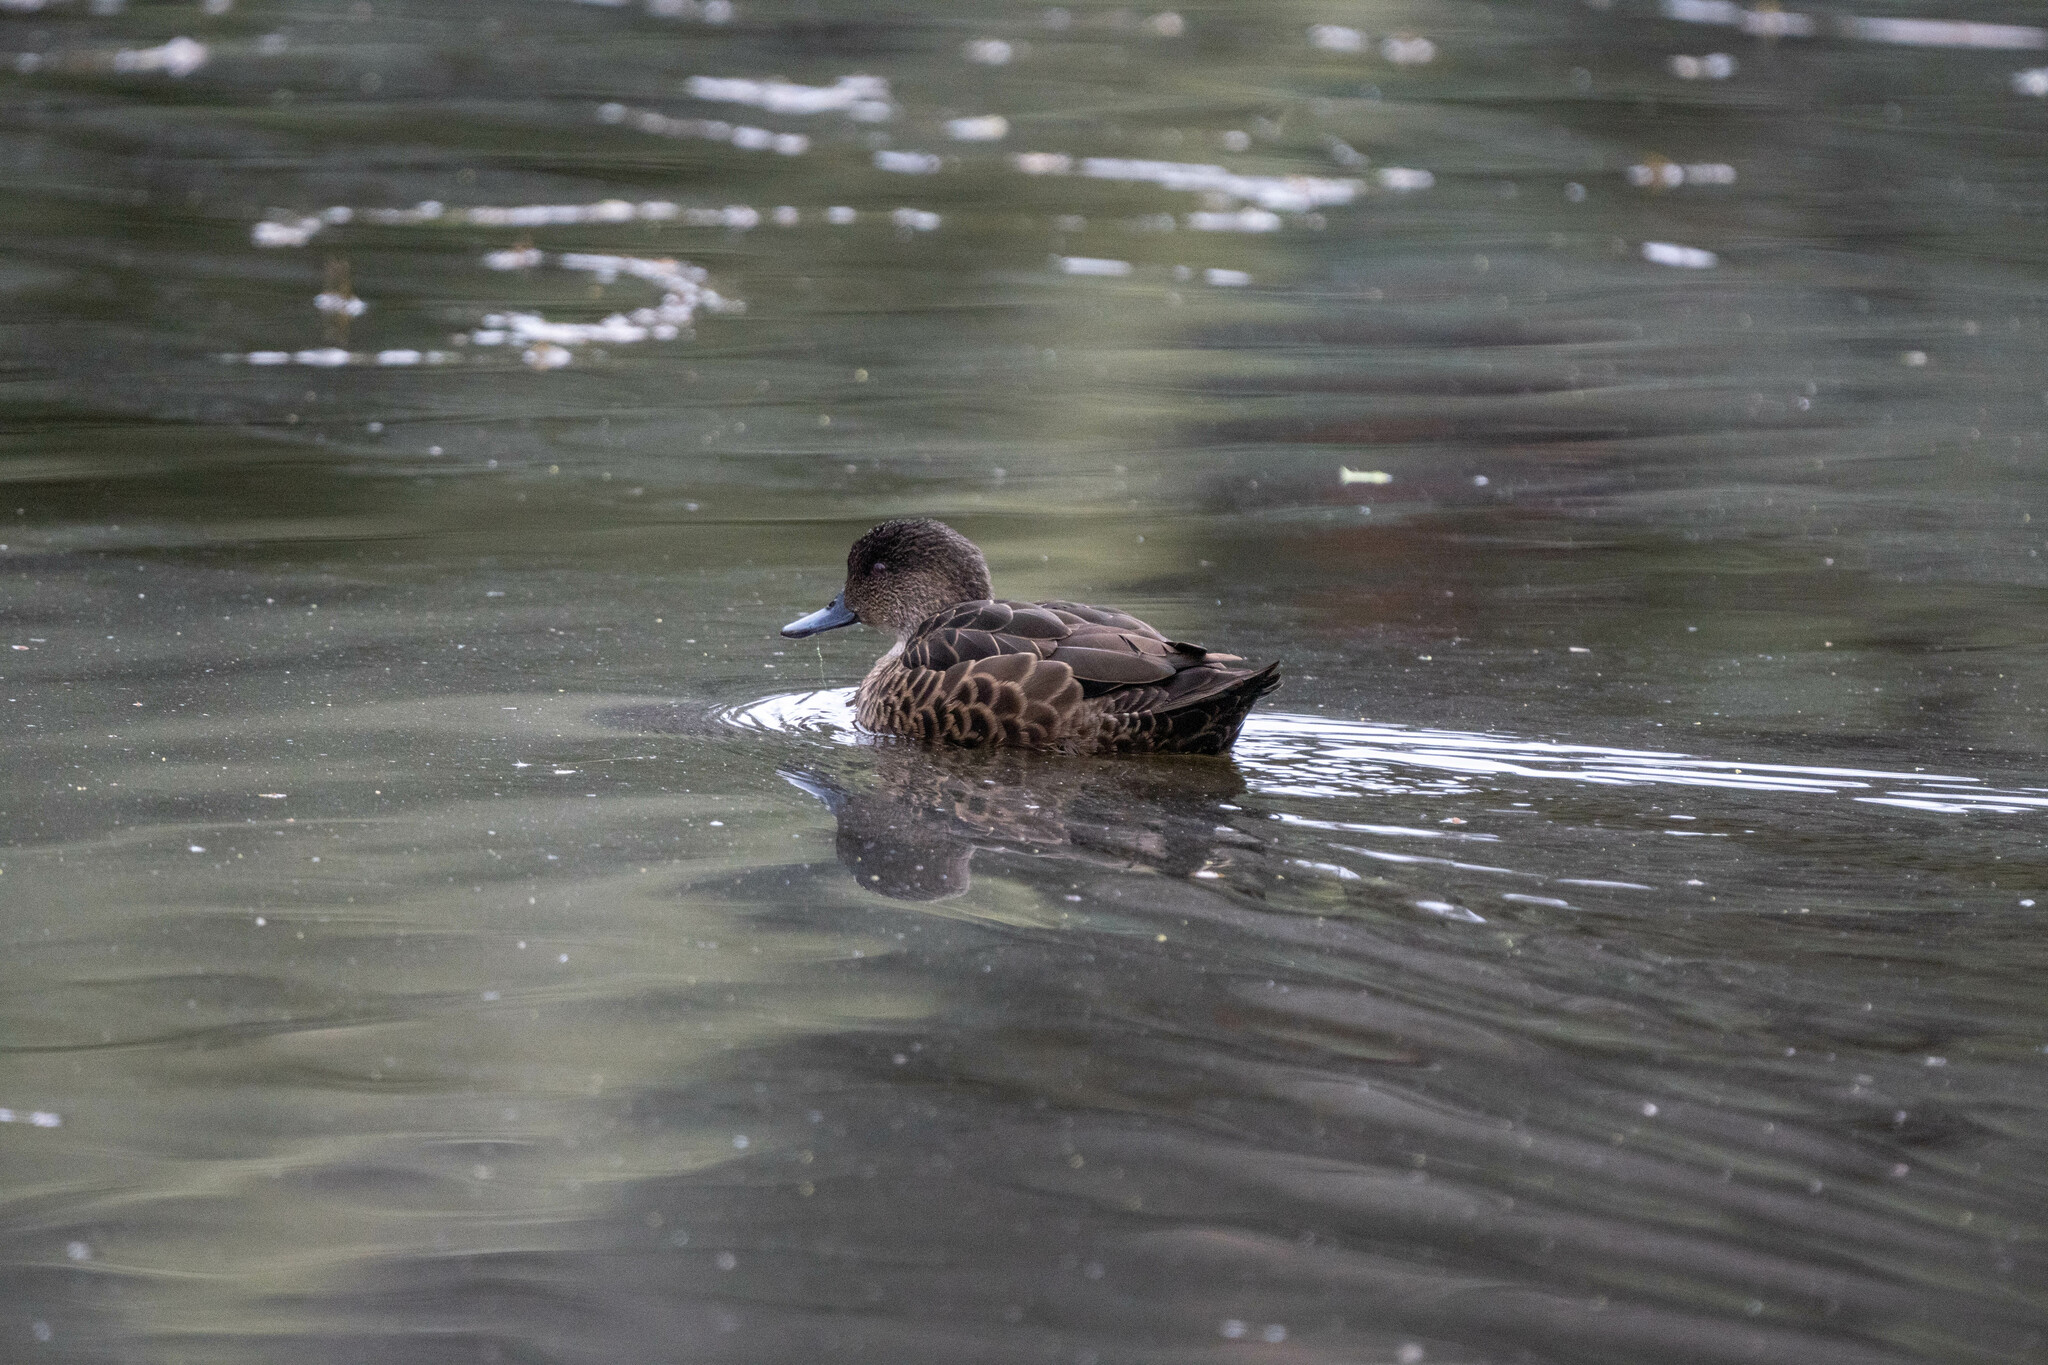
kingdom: Animalia
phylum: Chordata
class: Aves
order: Anseriformes
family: Anatidae
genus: Anas
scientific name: Anas castanea
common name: Chestnut teal
